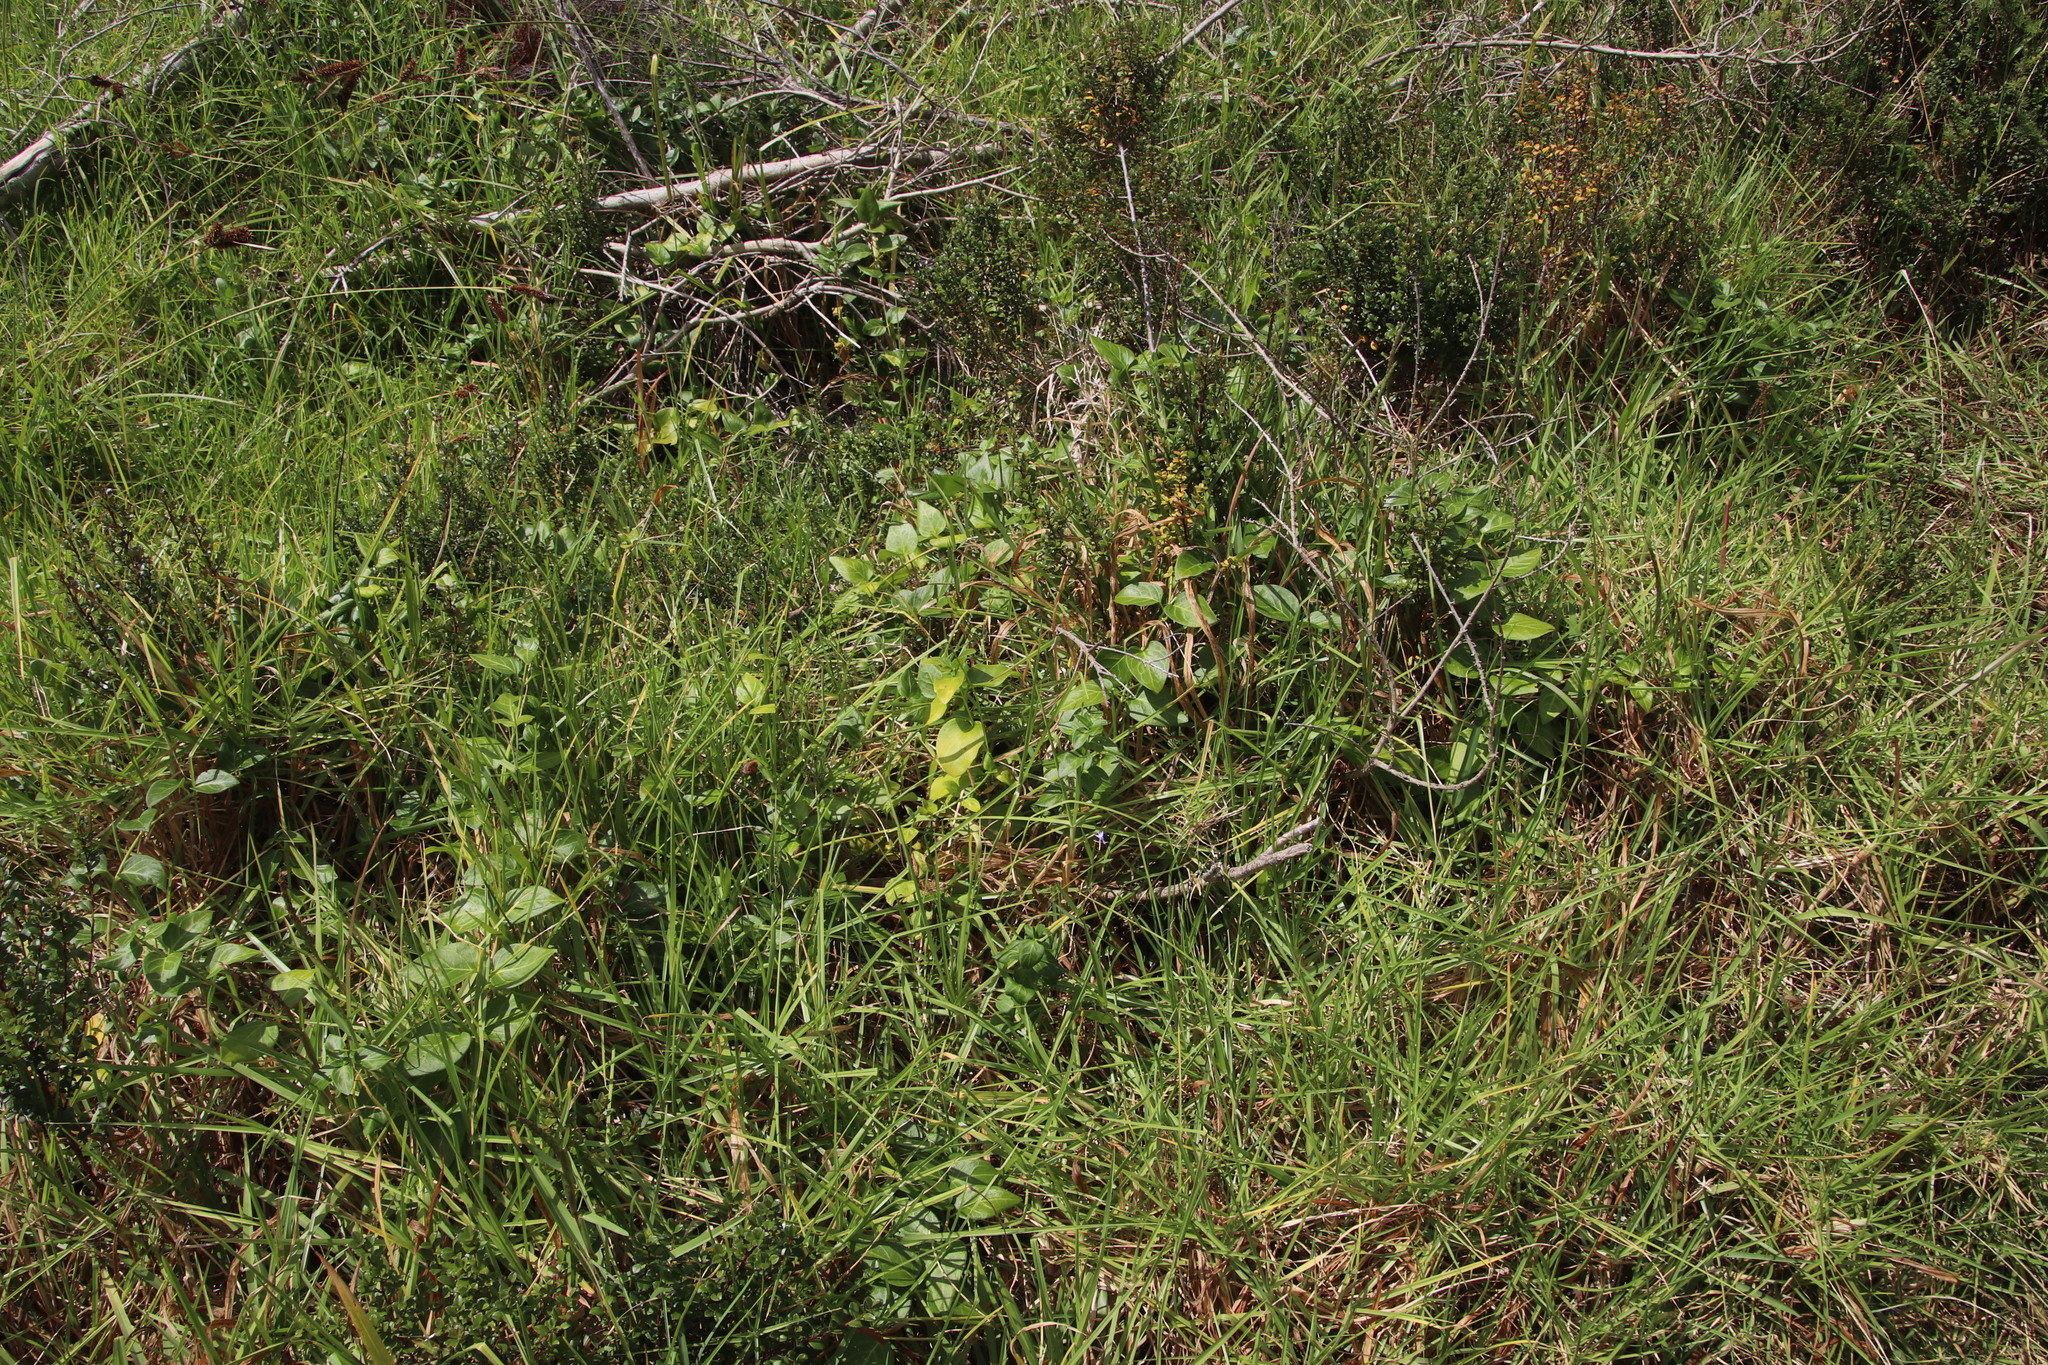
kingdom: Plantae
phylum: Tracheophyta
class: Magnoliopsida
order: Gentianales
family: Apocynaceae
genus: Vinca
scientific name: Vinca major
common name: Greater periwinkle
